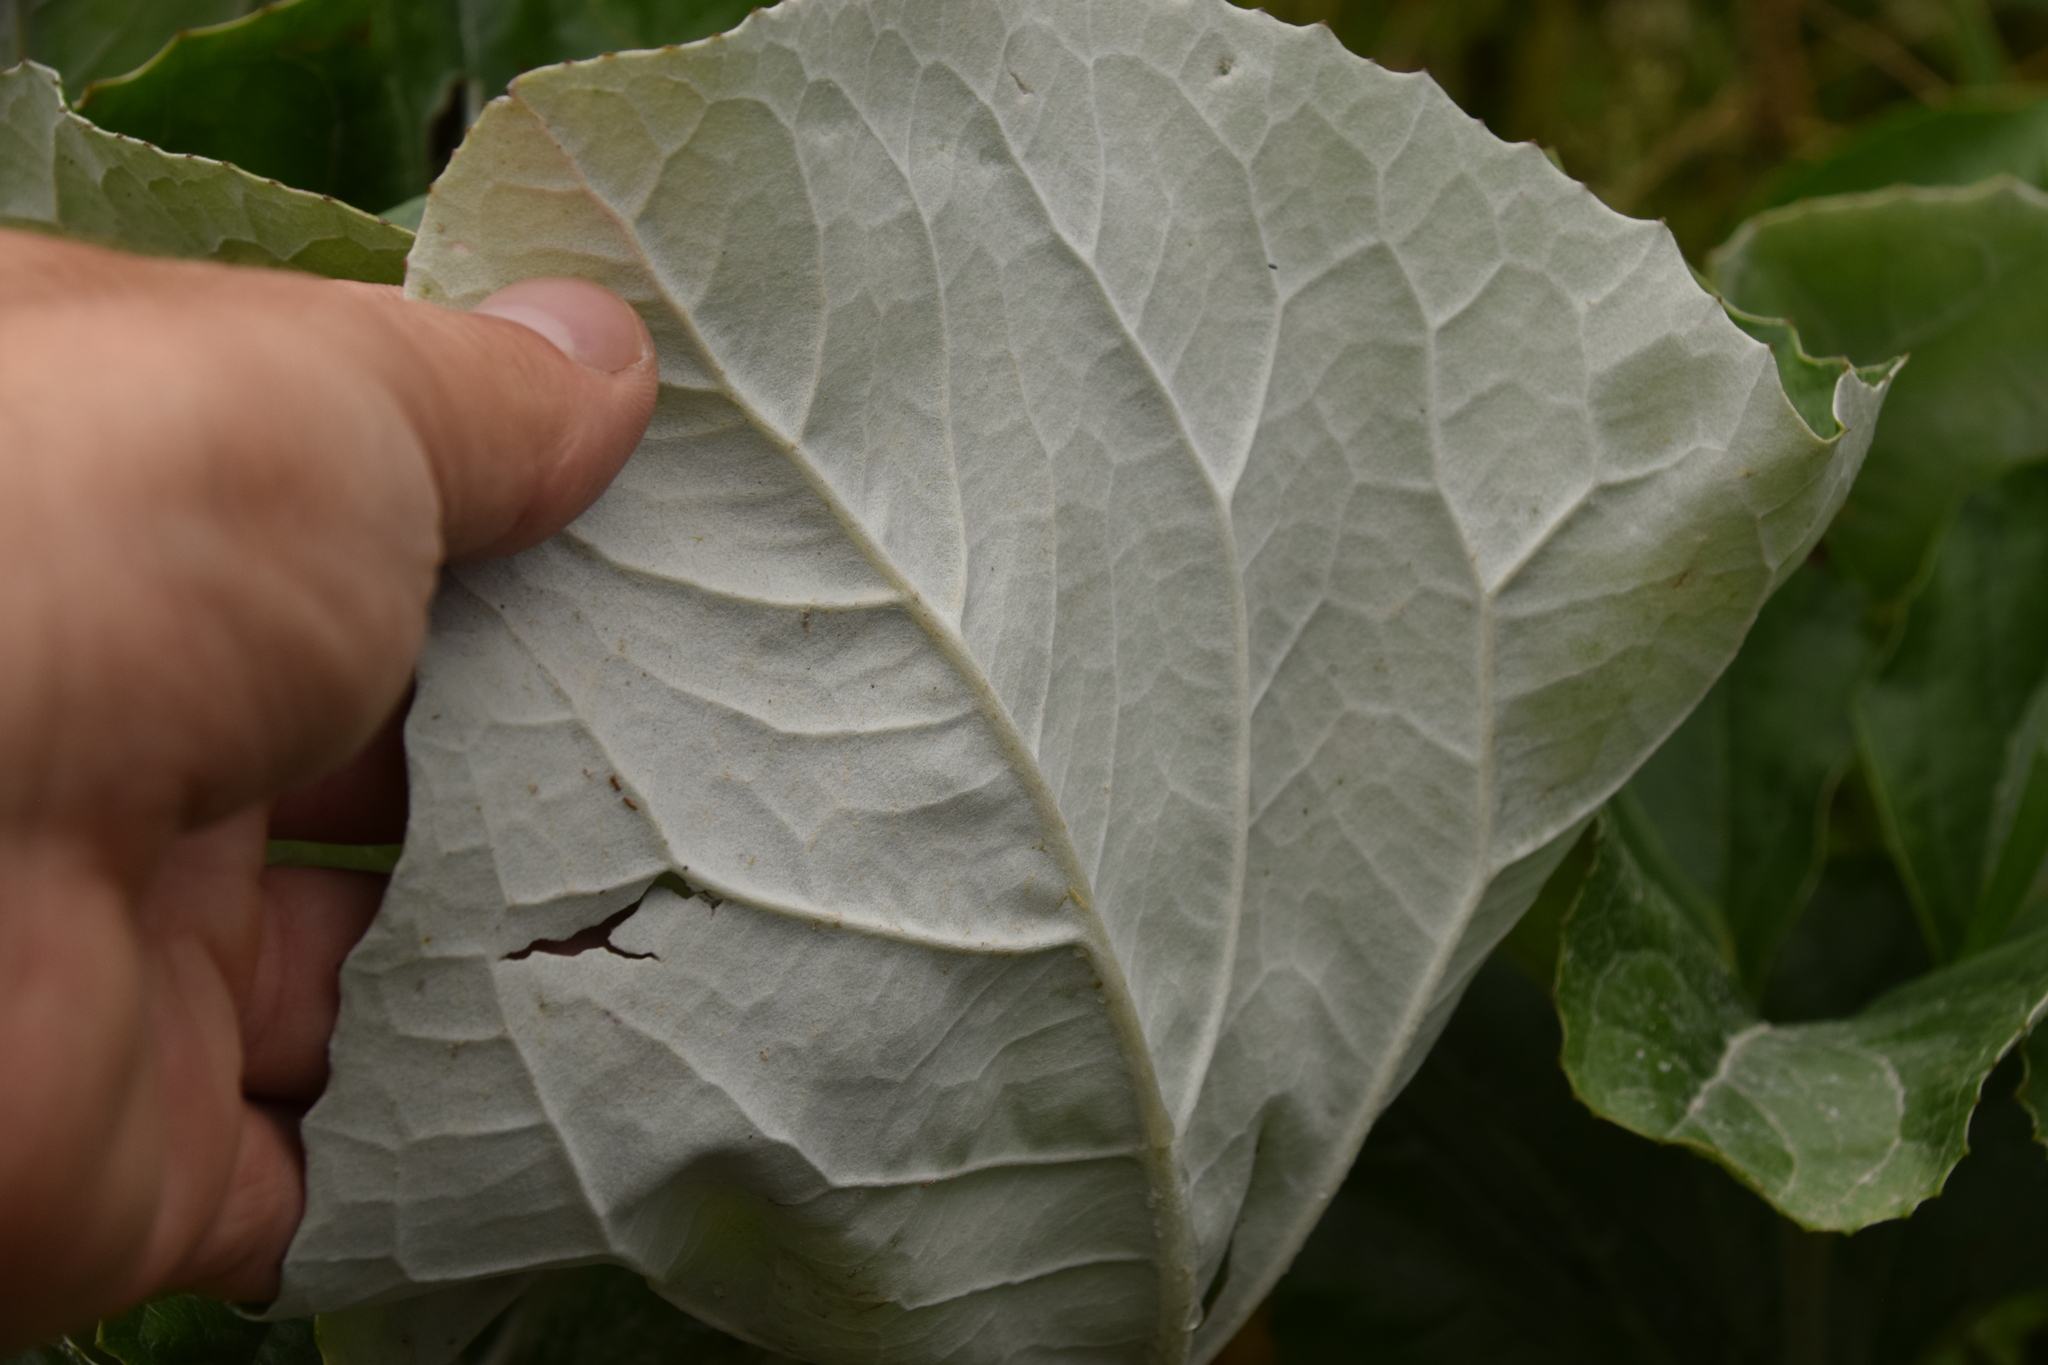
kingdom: Plantae
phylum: Tracheophyta
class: Magnoliopsida
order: Asterales
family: Asteraceae
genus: Petasites
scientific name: Petasites paradoxus
